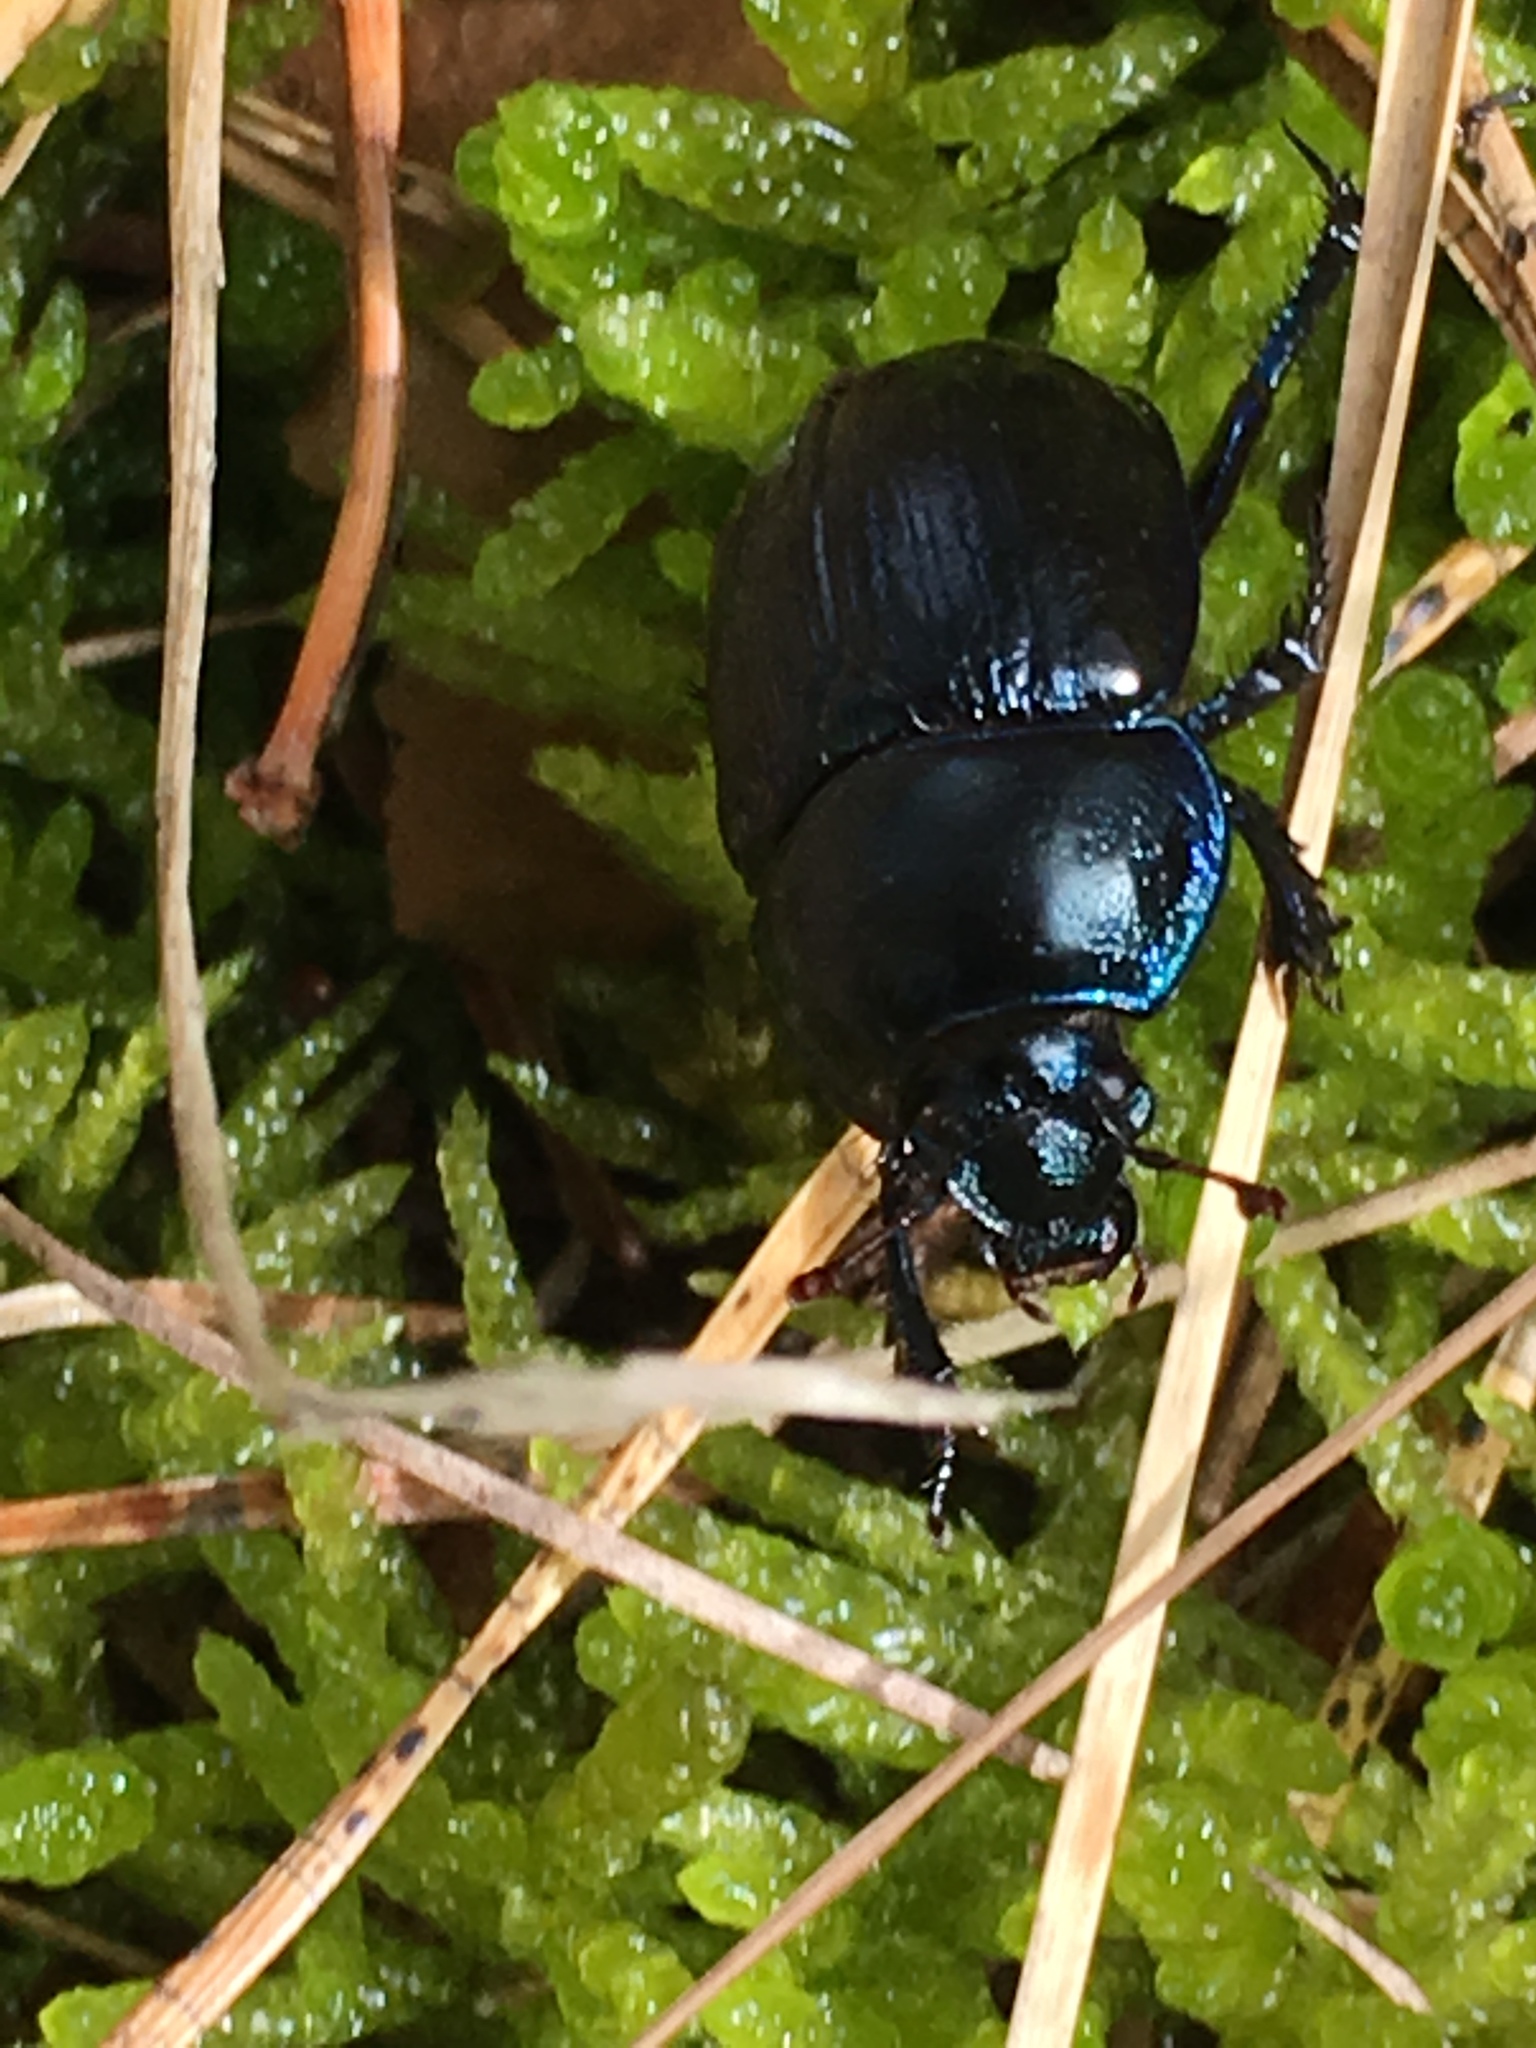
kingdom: Animalia
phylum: Arthropoda
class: Insecta
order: Coleoptera
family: Geotrupidae
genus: Anoplotrupes
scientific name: Anoplotrupes stercorosus
